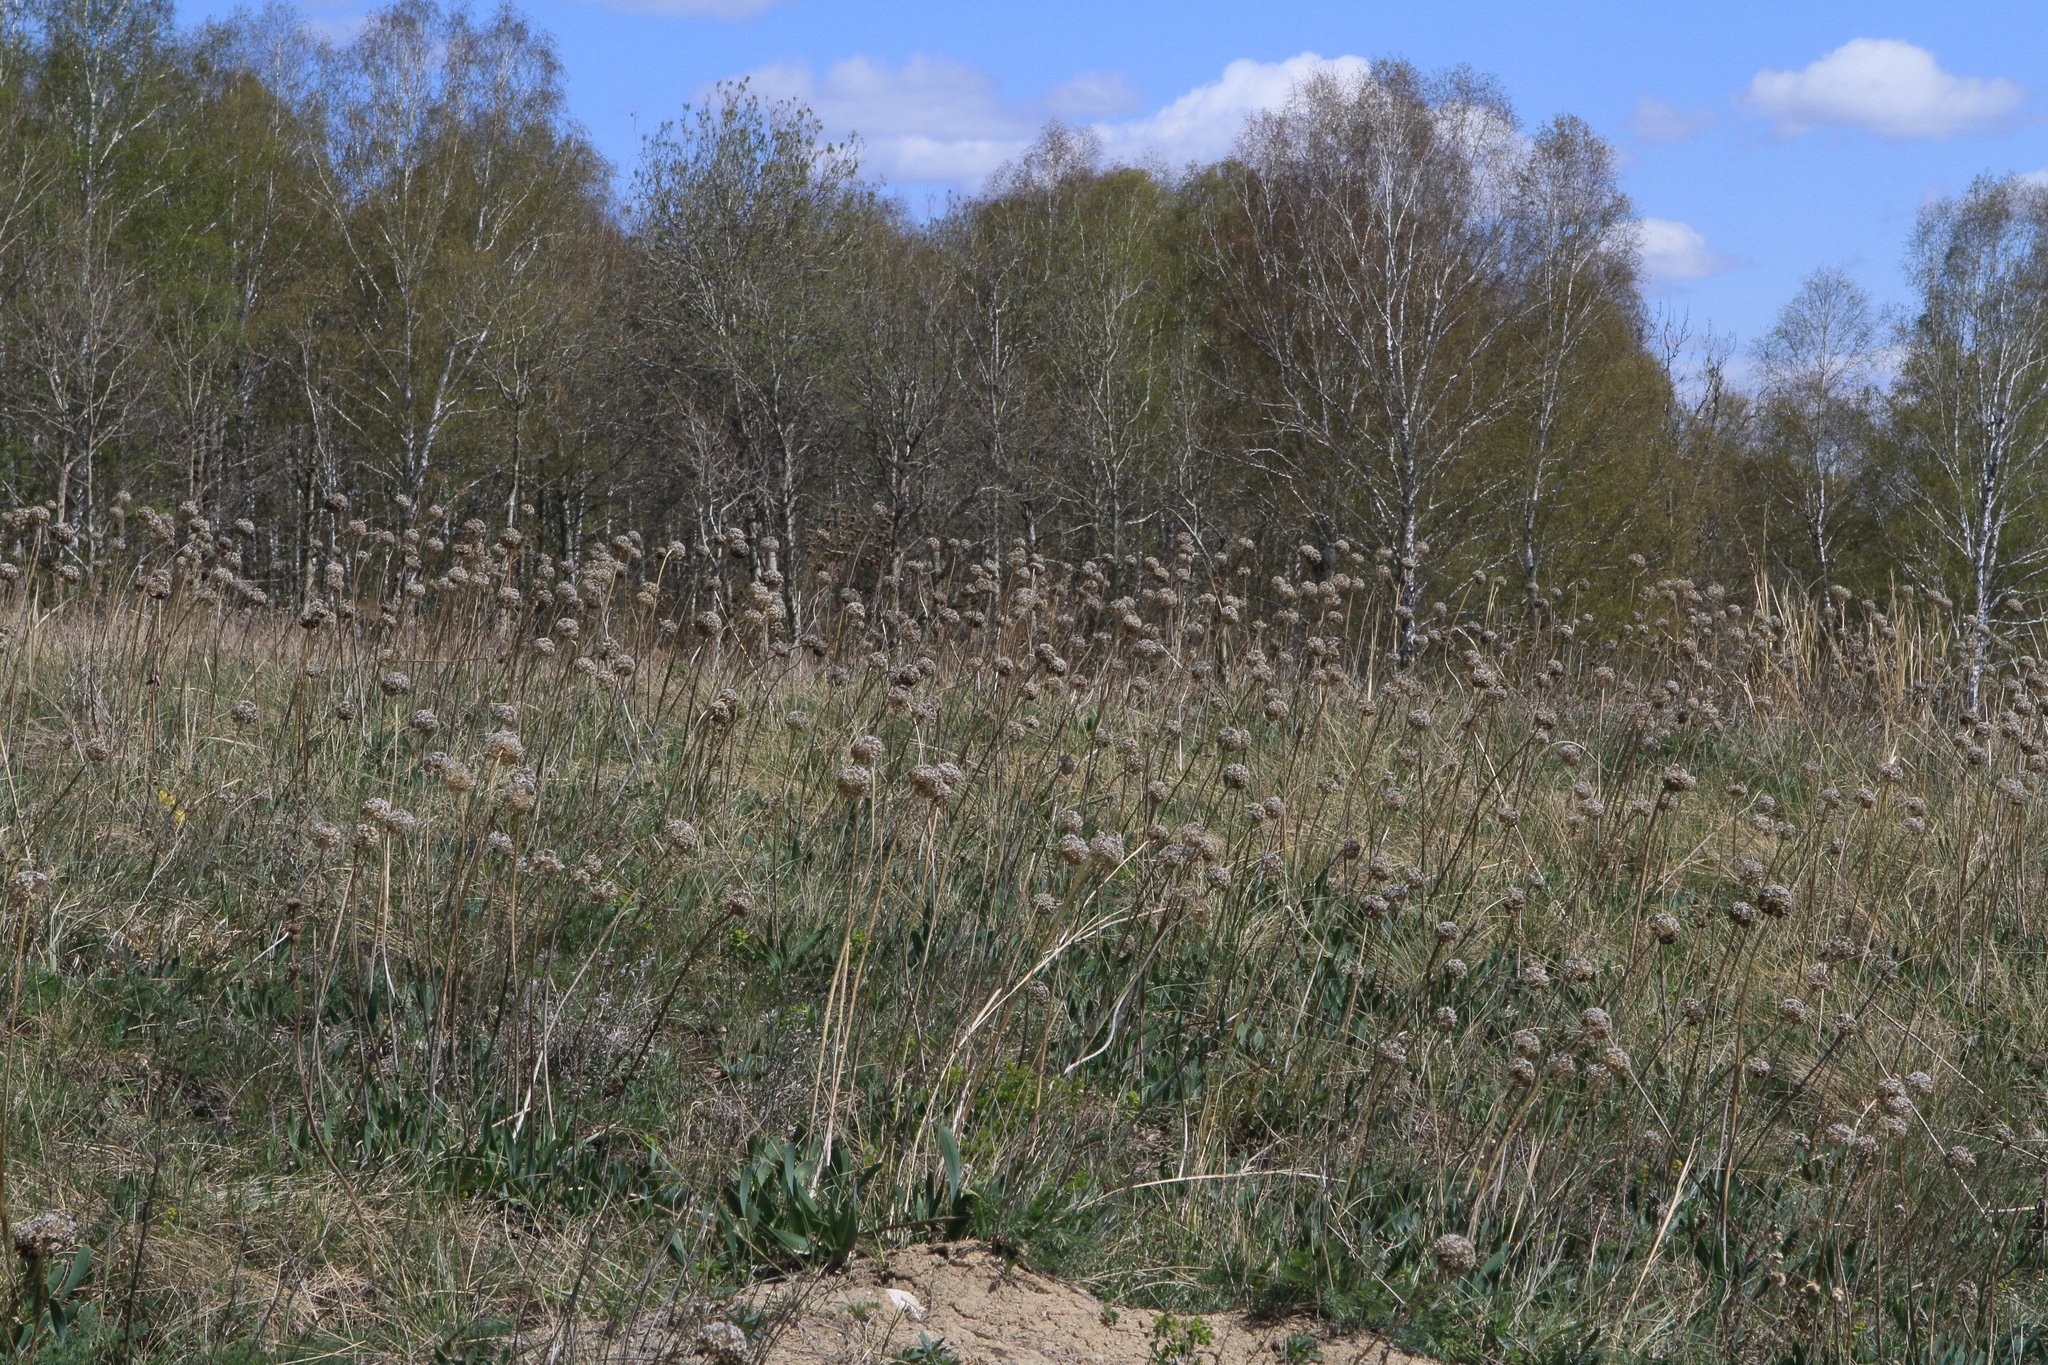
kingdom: Animalia
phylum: Chordata
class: Mammalia
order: Rodentia
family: Sciuridae
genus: Marmota
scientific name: Marmota kastschenkoi
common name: Forest steppe marmot
